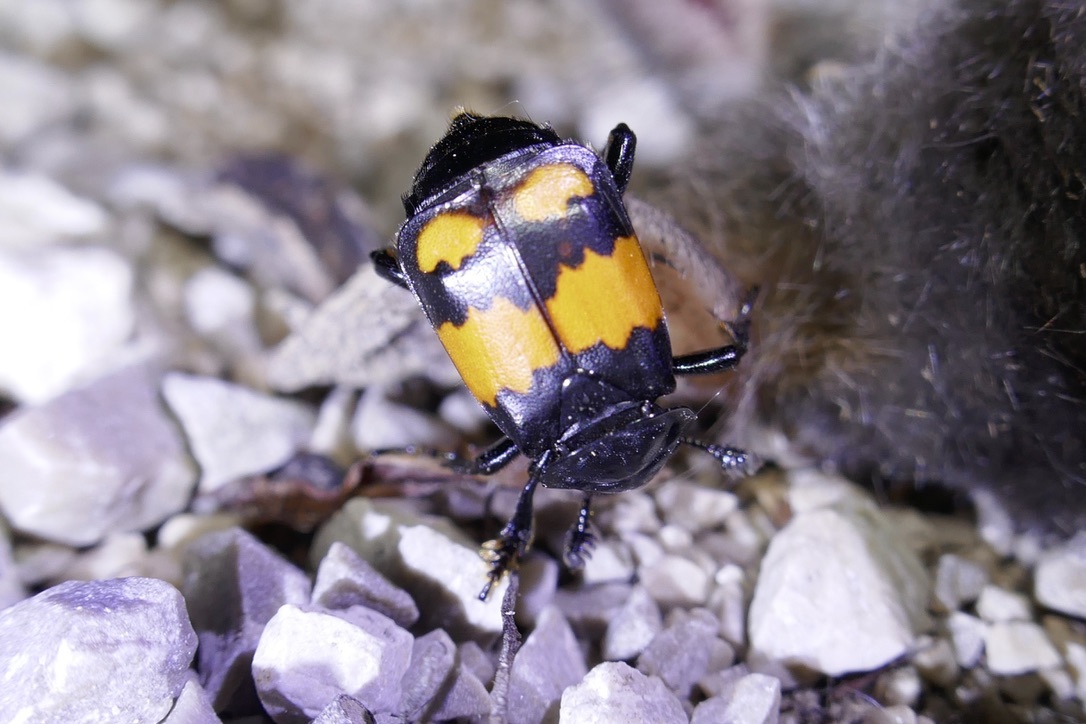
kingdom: Animalia
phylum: Arthropoda
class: Insecta
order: Coleoptera
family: Staphylinidae
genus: Nicrophorus
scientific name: Nicrophorus vespilloides
